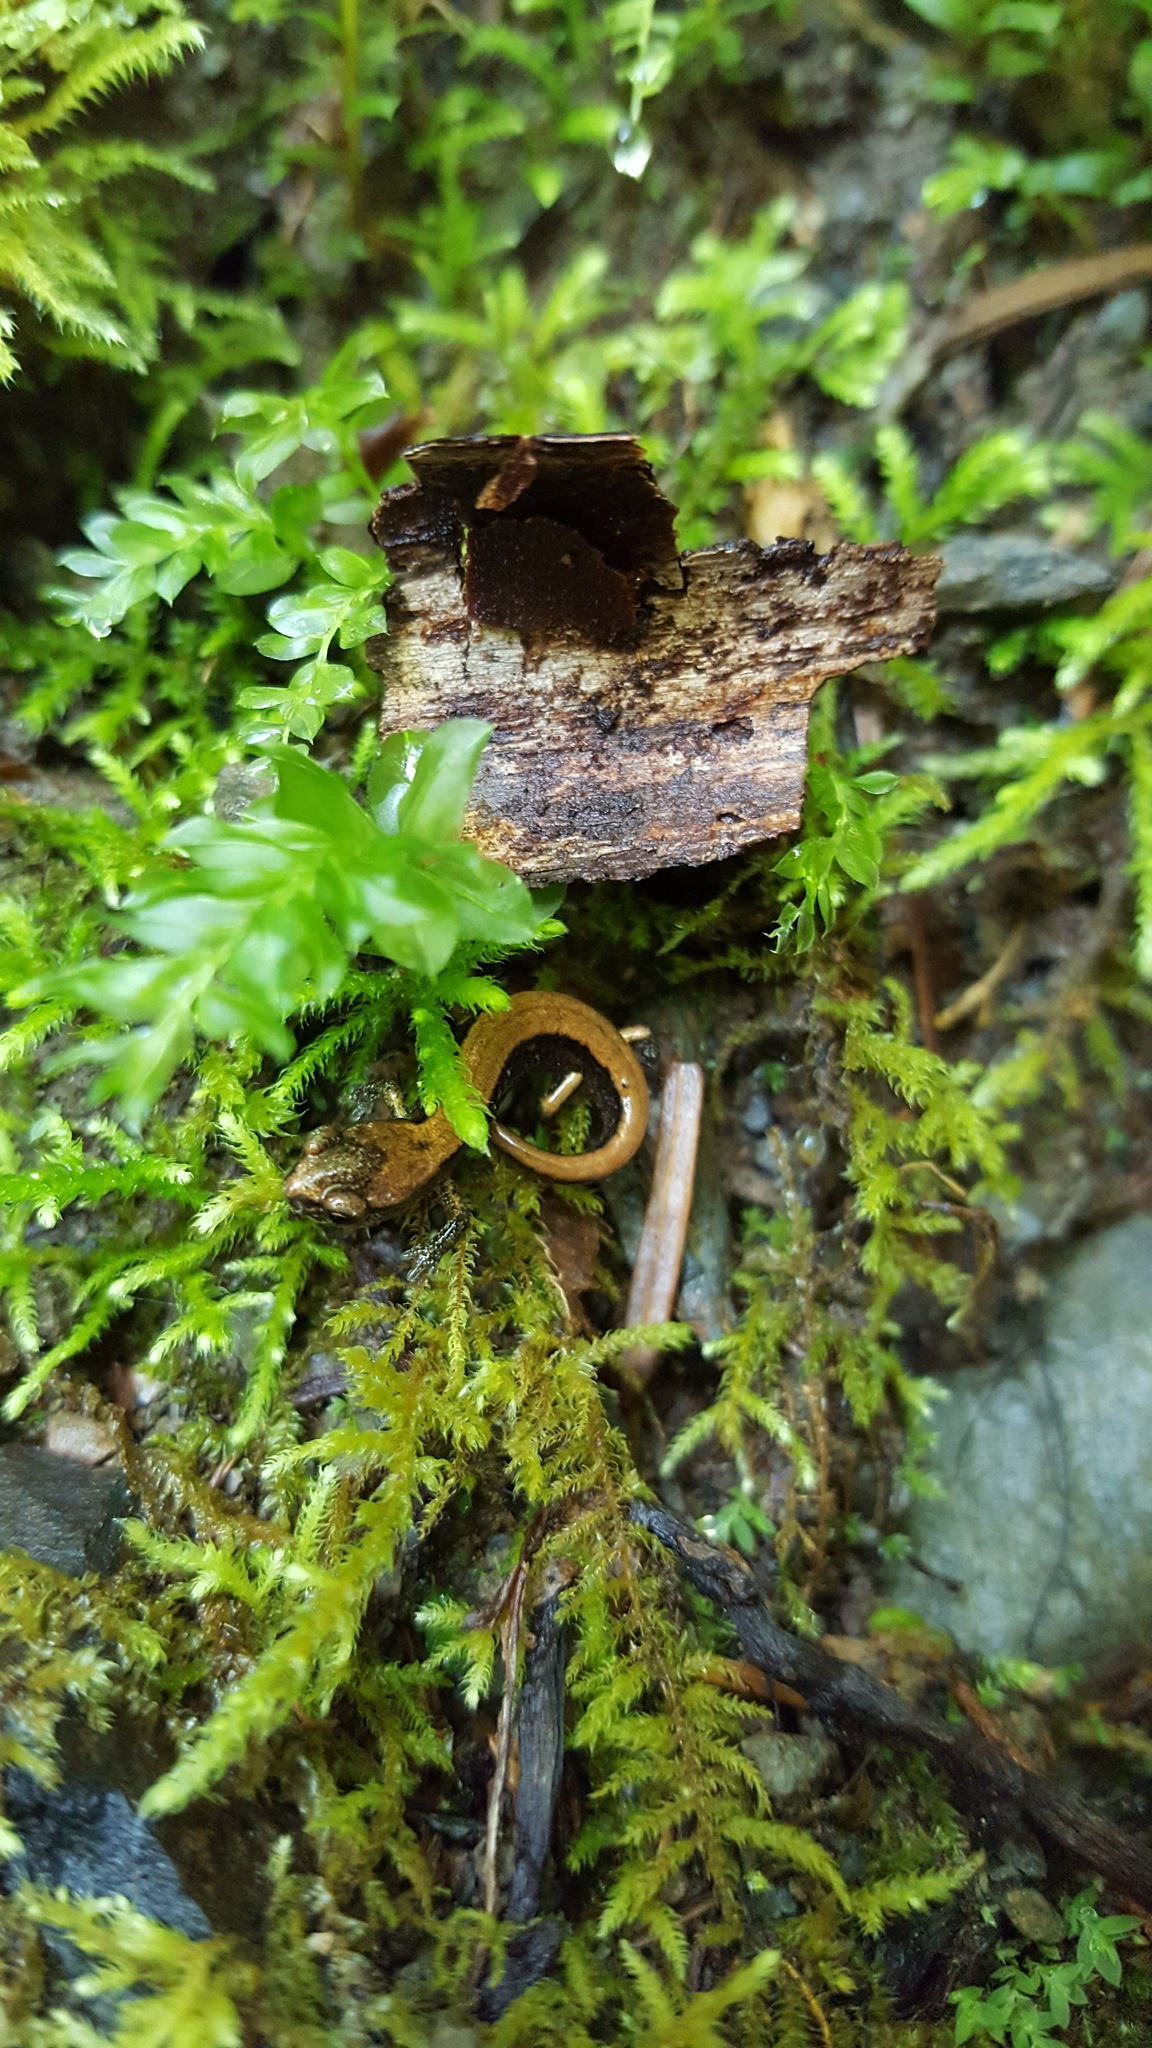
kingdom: Animalia
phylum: Chordata
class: Amphibia
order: Caudata
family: Plethodontidae
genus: Plethodon
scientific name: Plethodon vehiculum
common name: Western red-backed salamander
